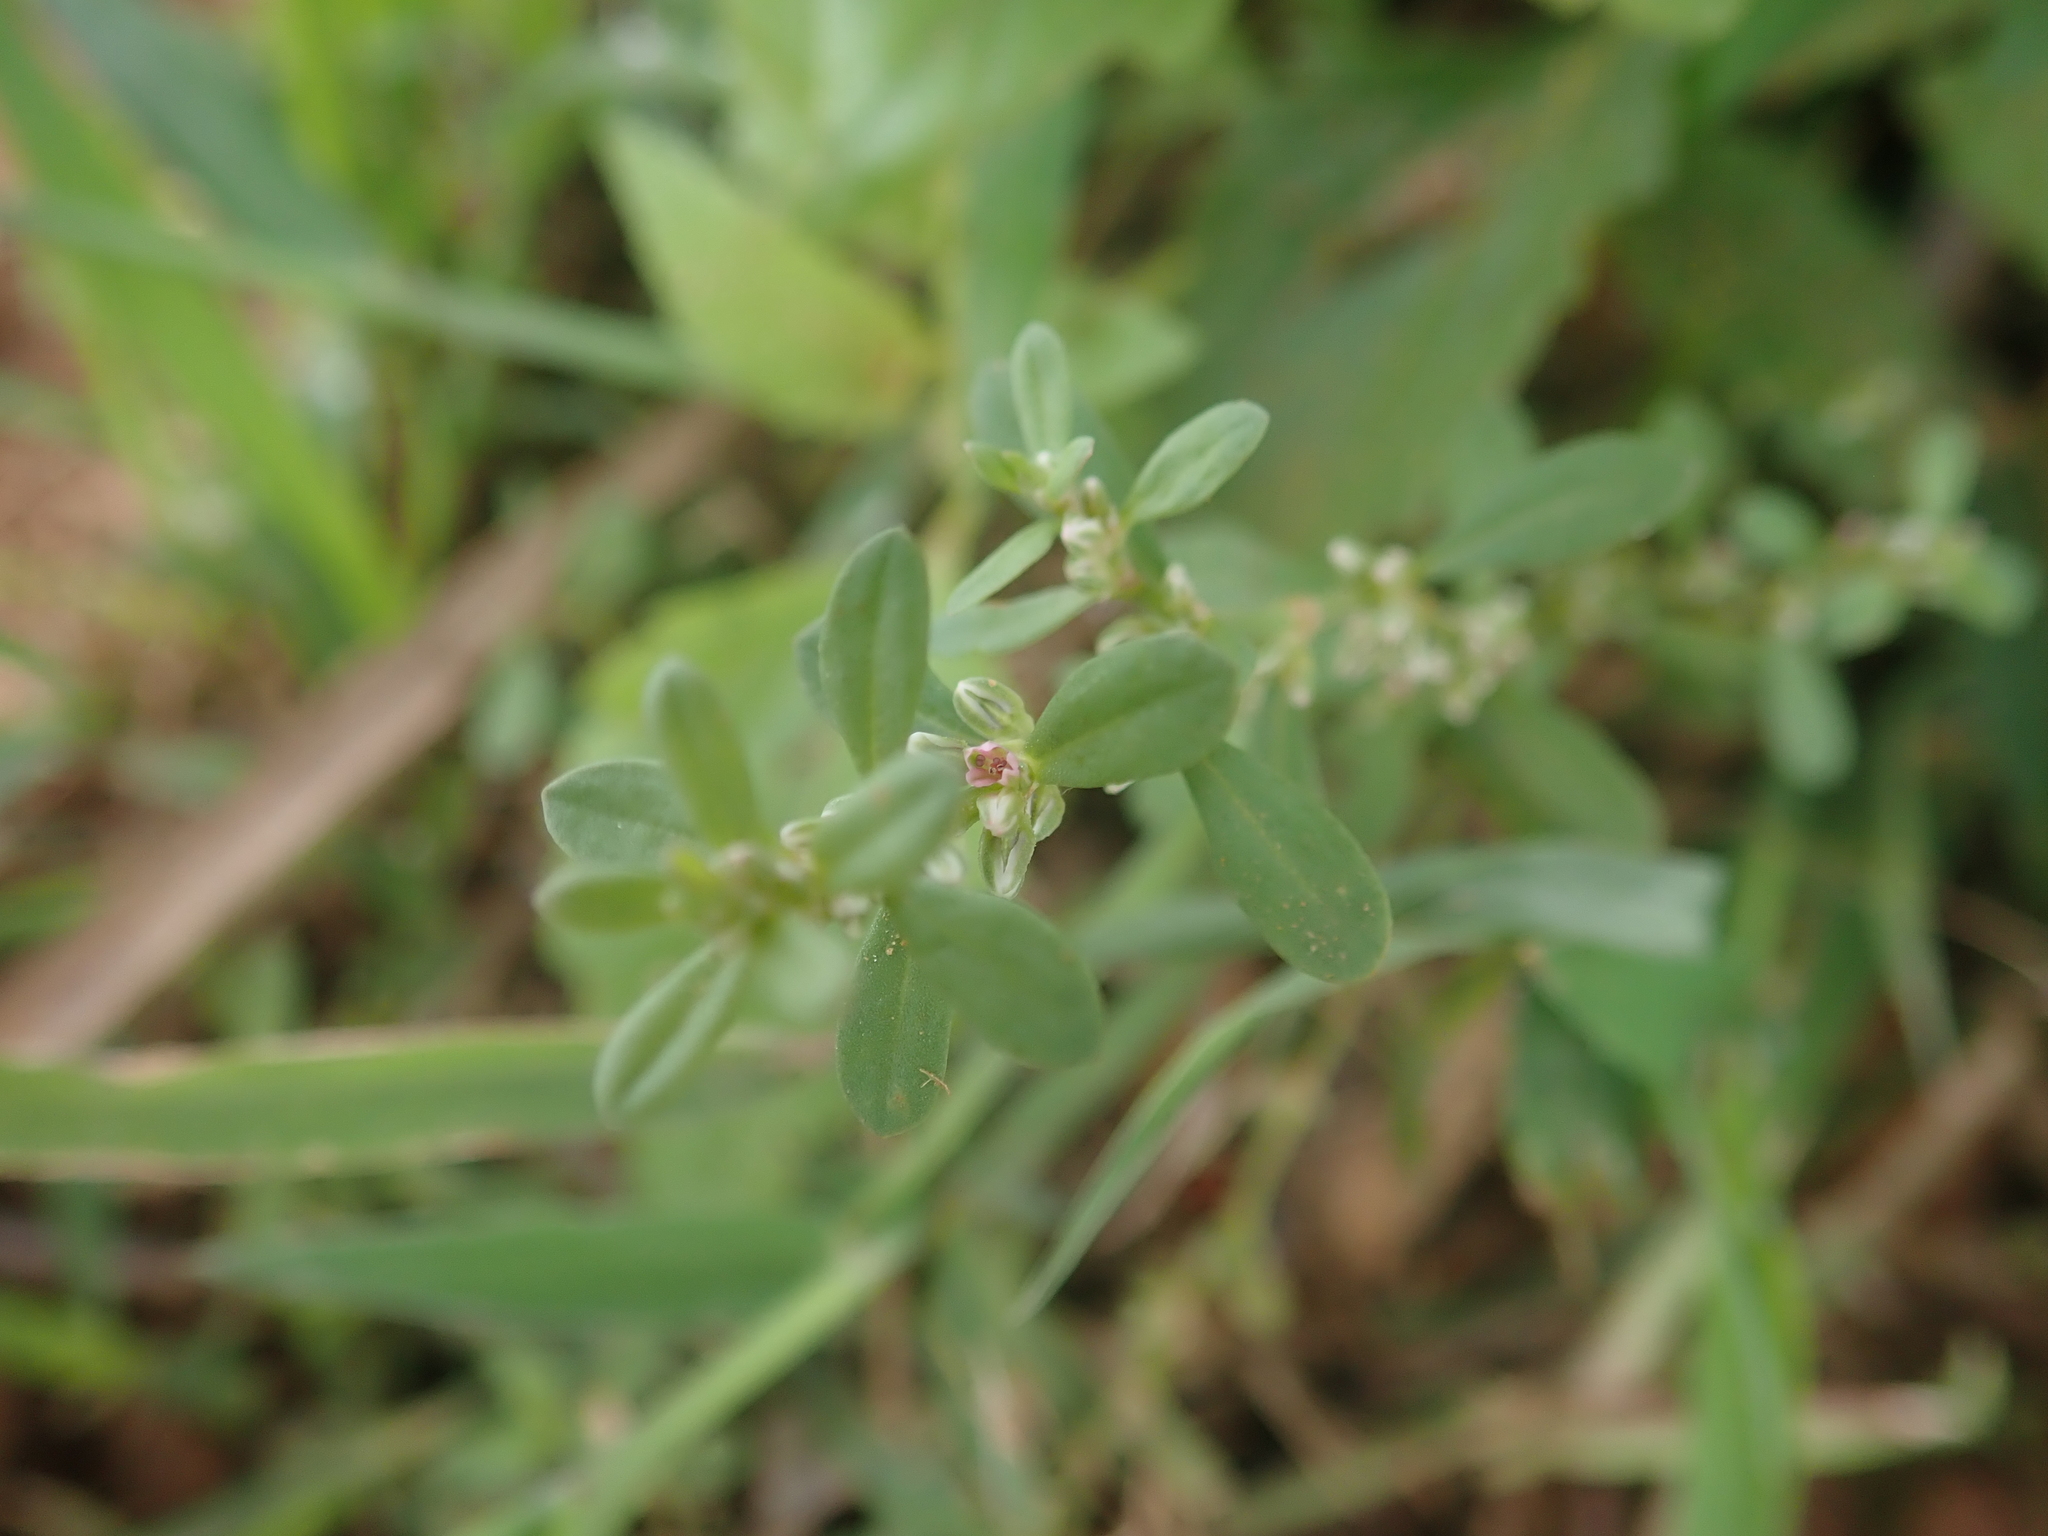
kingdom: Plantae
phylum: Tracheophyta
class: Magnoliopsida
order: Caryophyllales
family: Polygonaceae
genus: Polygonum
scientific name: Polygonum plebeium
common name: Common knotweed
